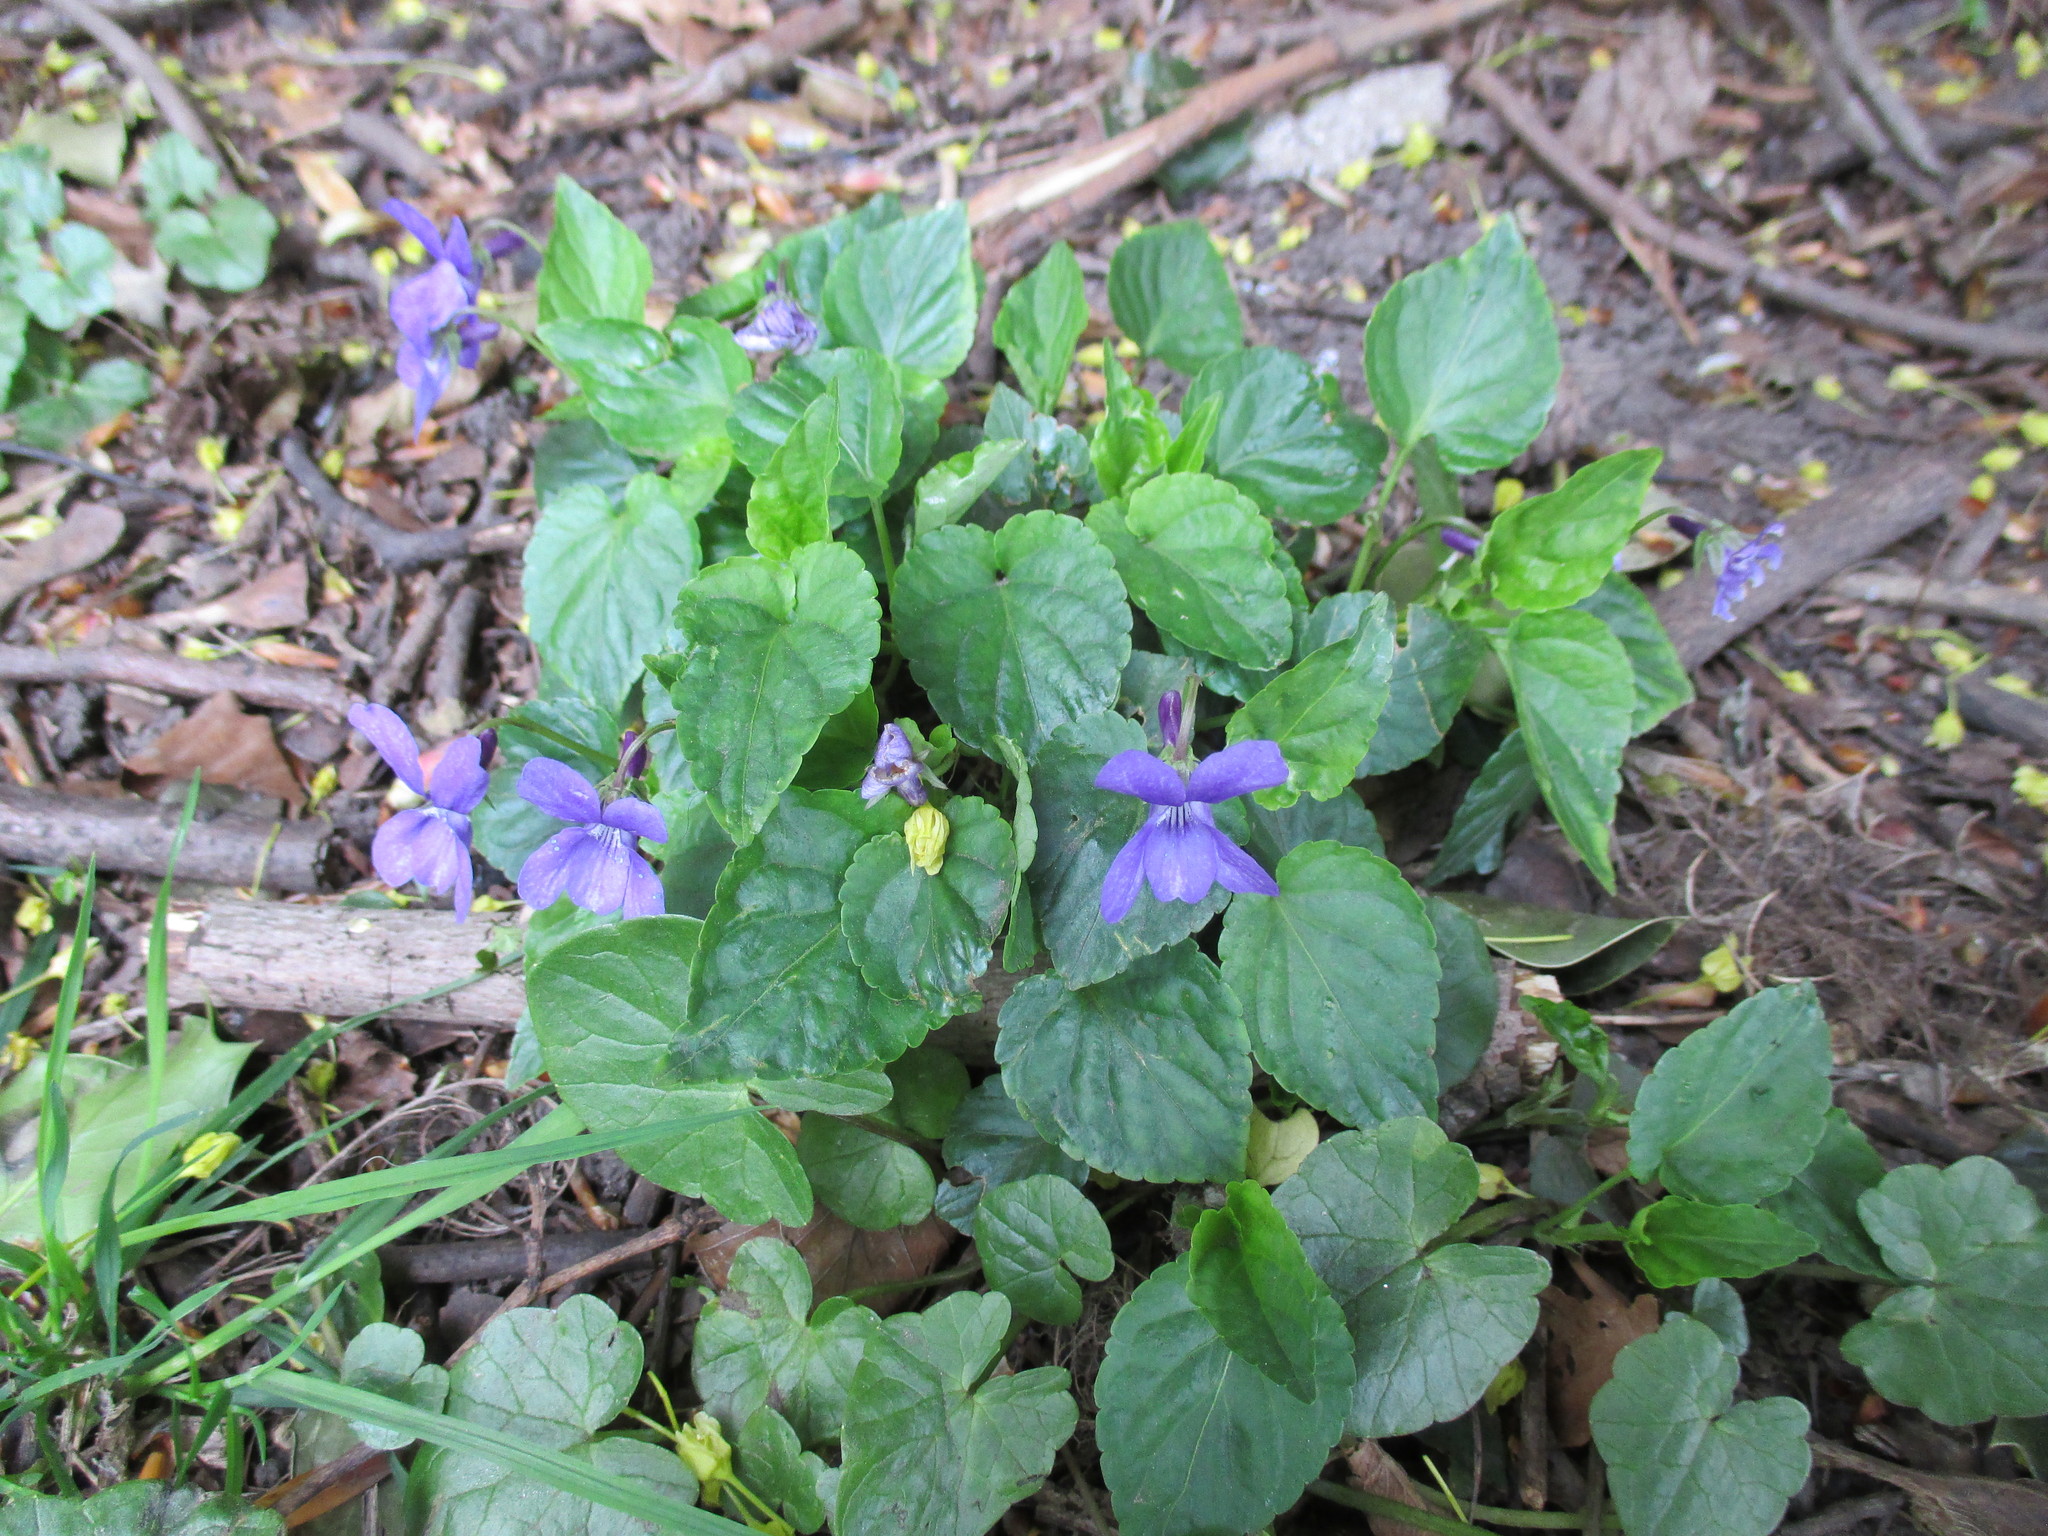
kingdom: Plantae
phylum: Tracheophyta
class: Magnoliopsida
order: Malpighiales
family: Violaceae
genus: Viola
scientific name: Viola riviniana
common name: Common dog-violet
